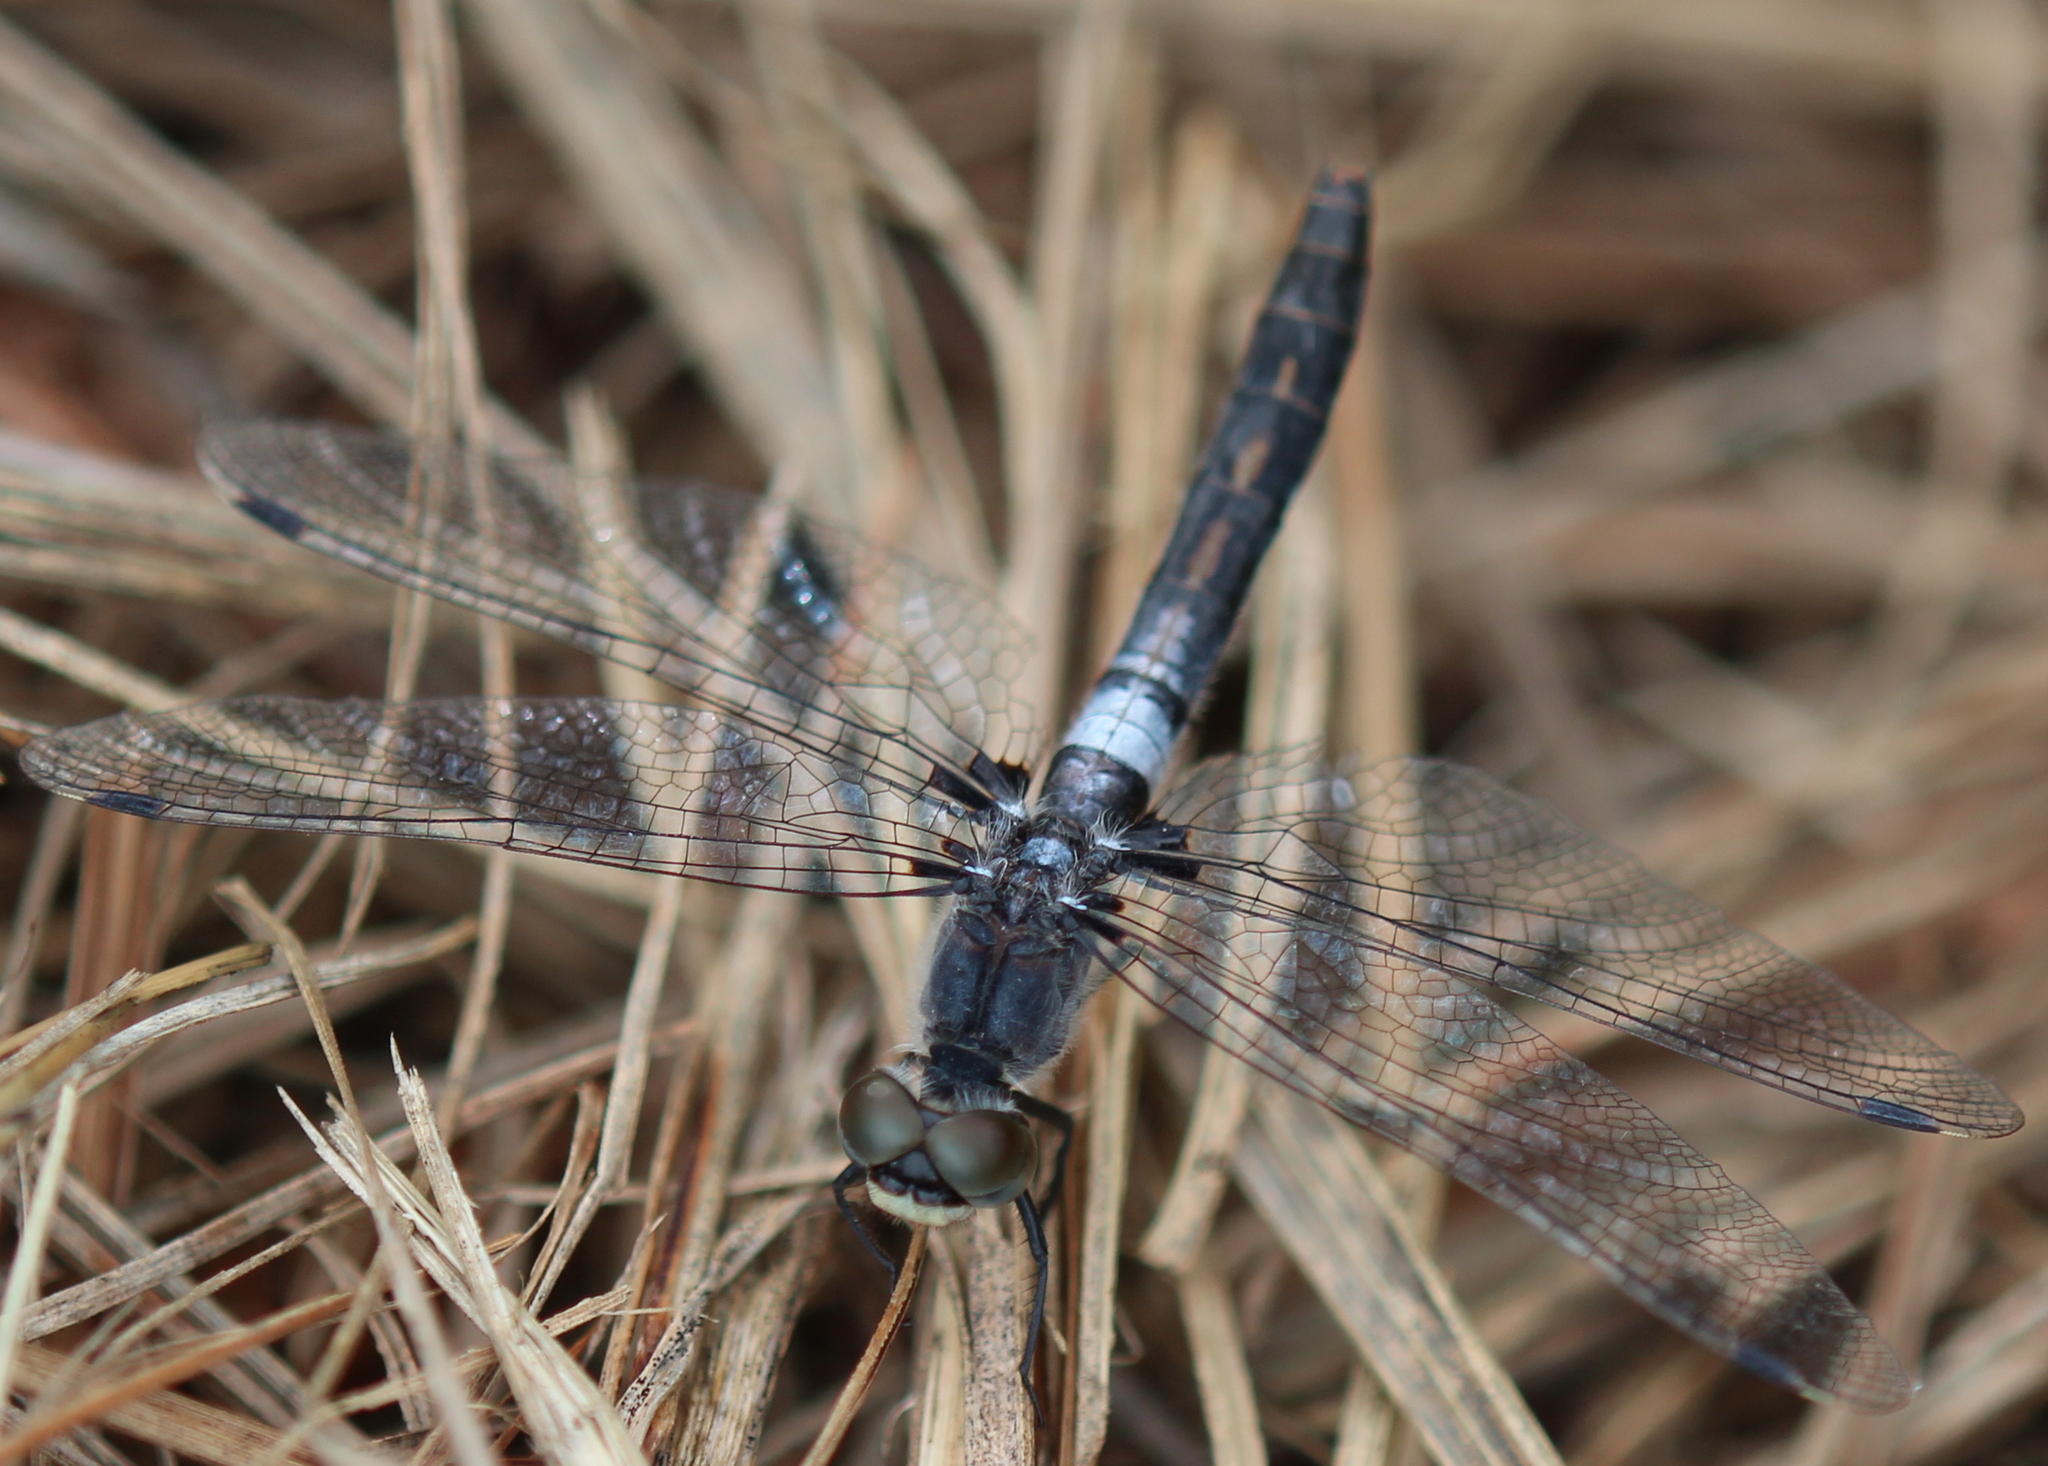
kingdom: Animalia
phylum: Arthropoda
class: Insecta
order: Odonata
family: Libellulidae
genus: Leucorrhinia
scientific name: Leucorrhinia frigida
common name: Frosted whiteface
